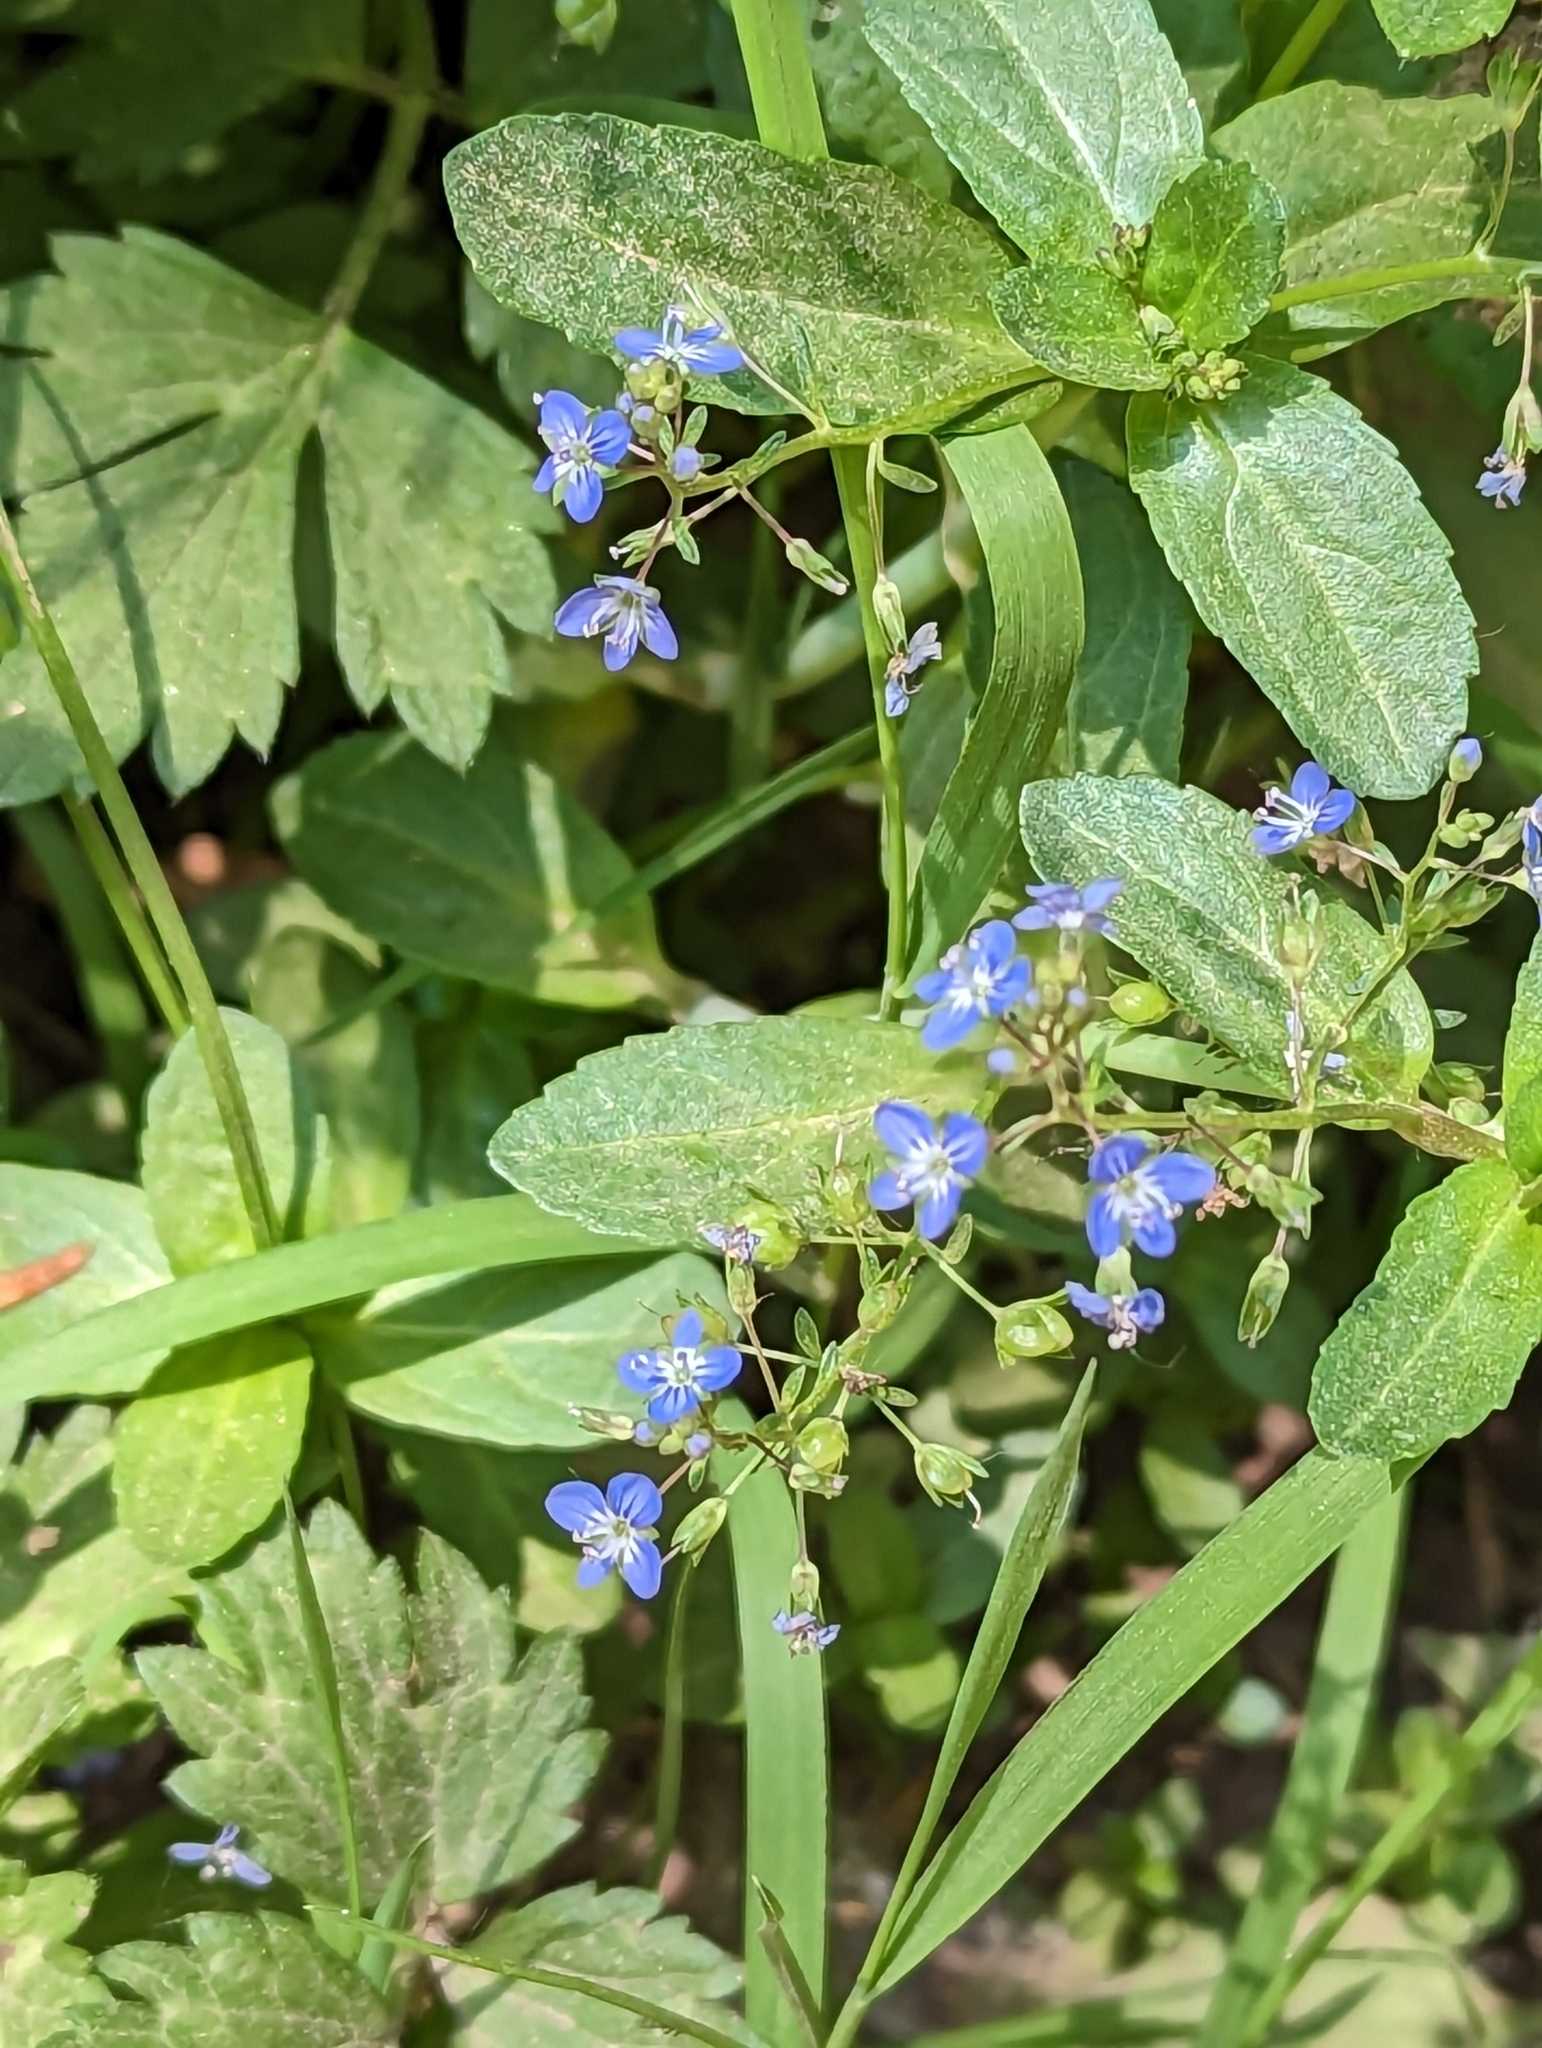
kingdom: Plantae
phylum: Tracheophyta
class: Magnoliopsida
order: Lamiales
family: Plantaginaceae
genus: Veronica
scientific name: Veronica beccabunga
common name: Brooklime
